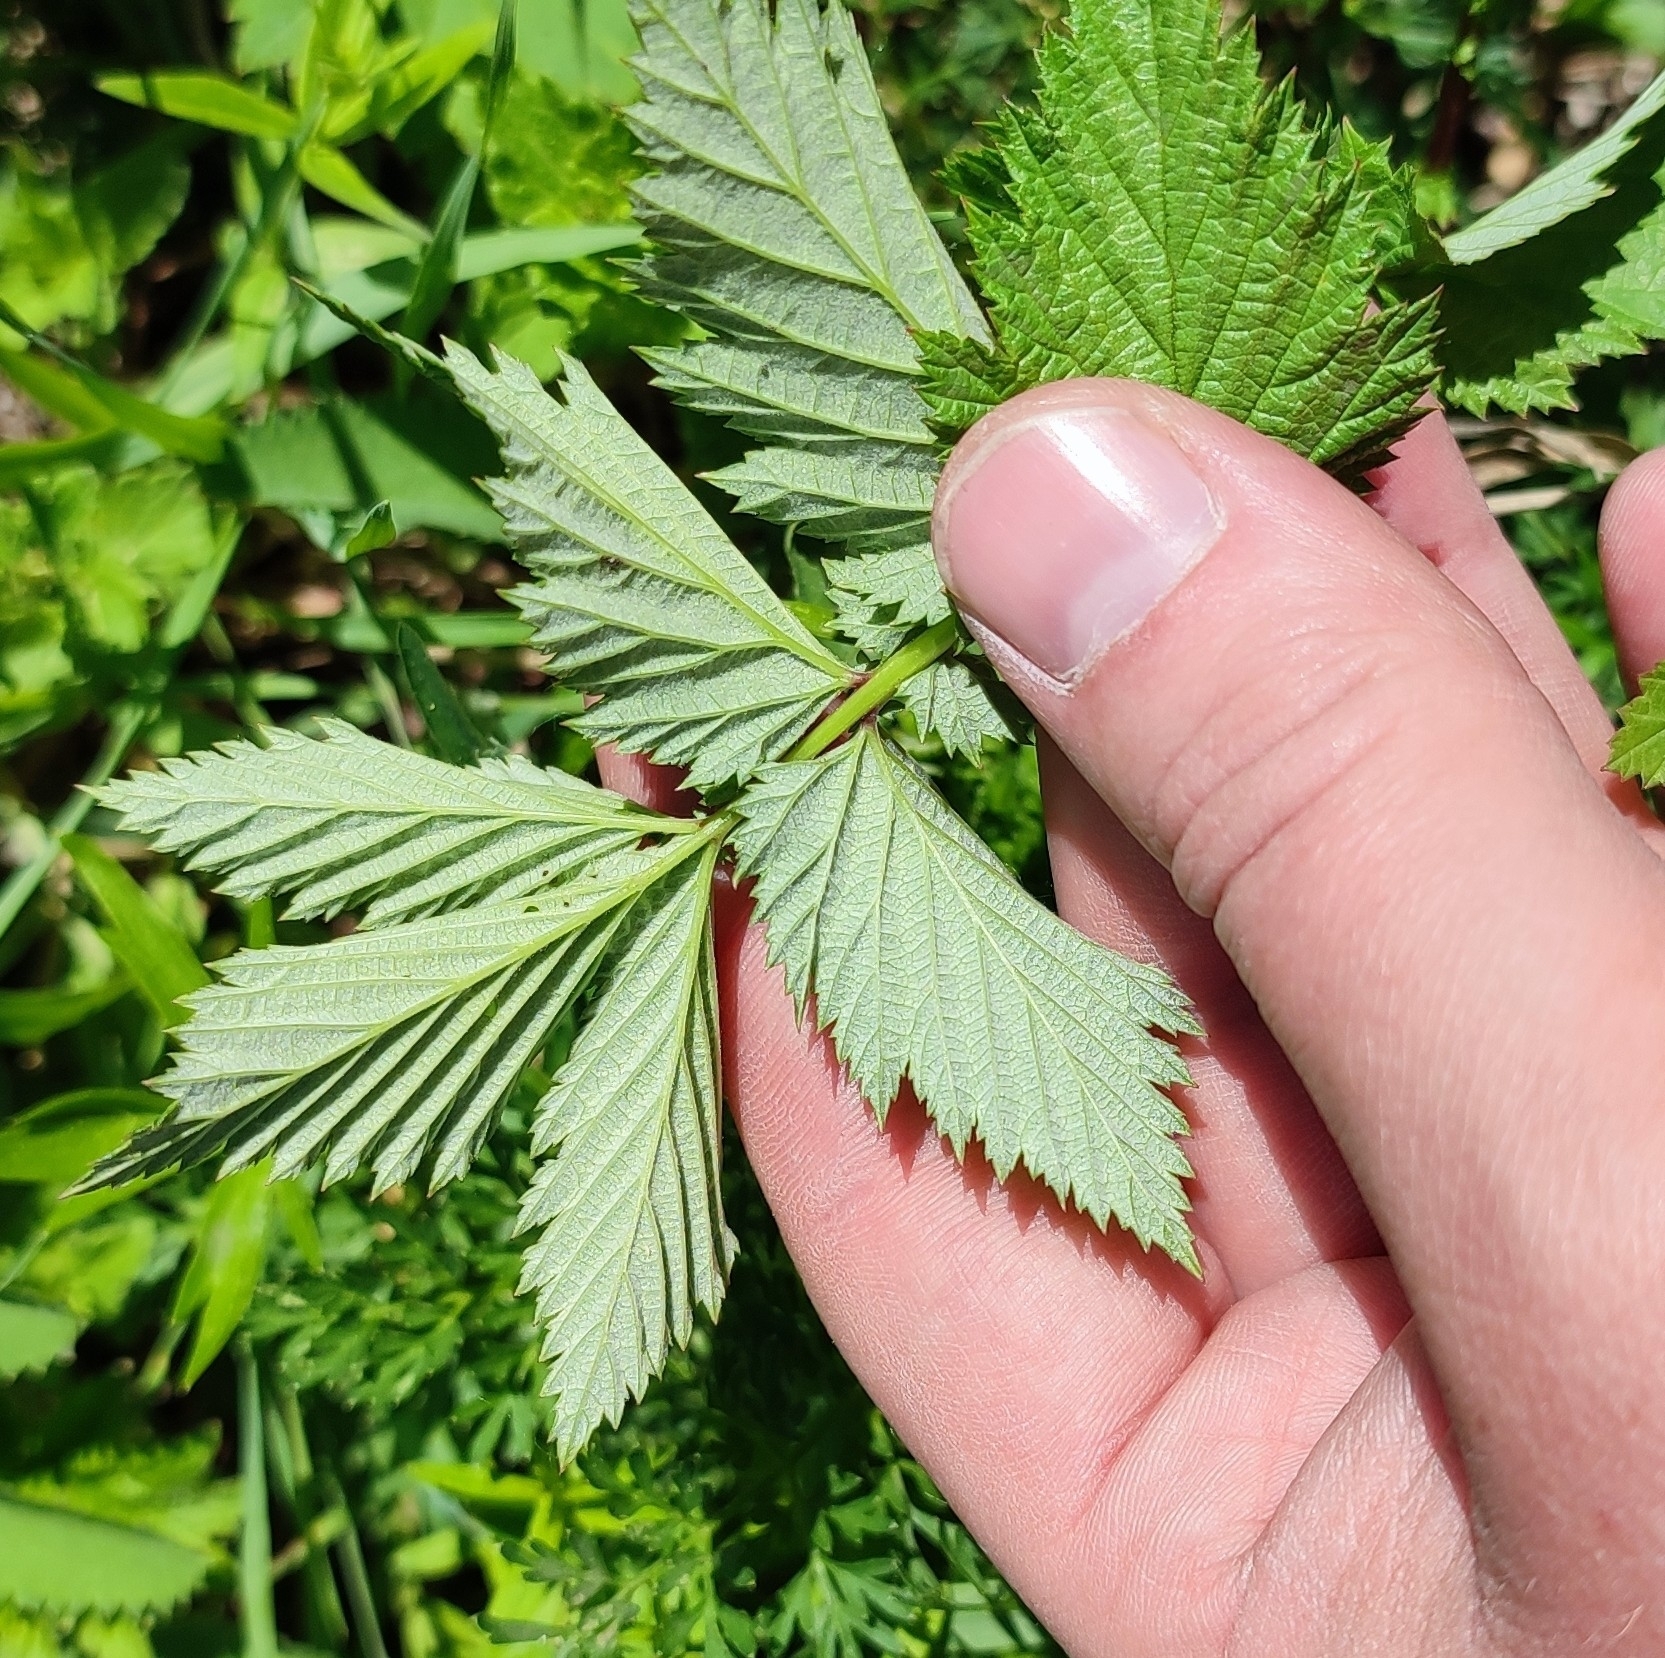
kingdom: Plantae
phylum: Tracheophyta
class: Magnoliopsida
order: Rosales
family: Rosaceae
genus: Filipendula
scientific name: Filipendula ulmaria
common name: Meadowsweet
